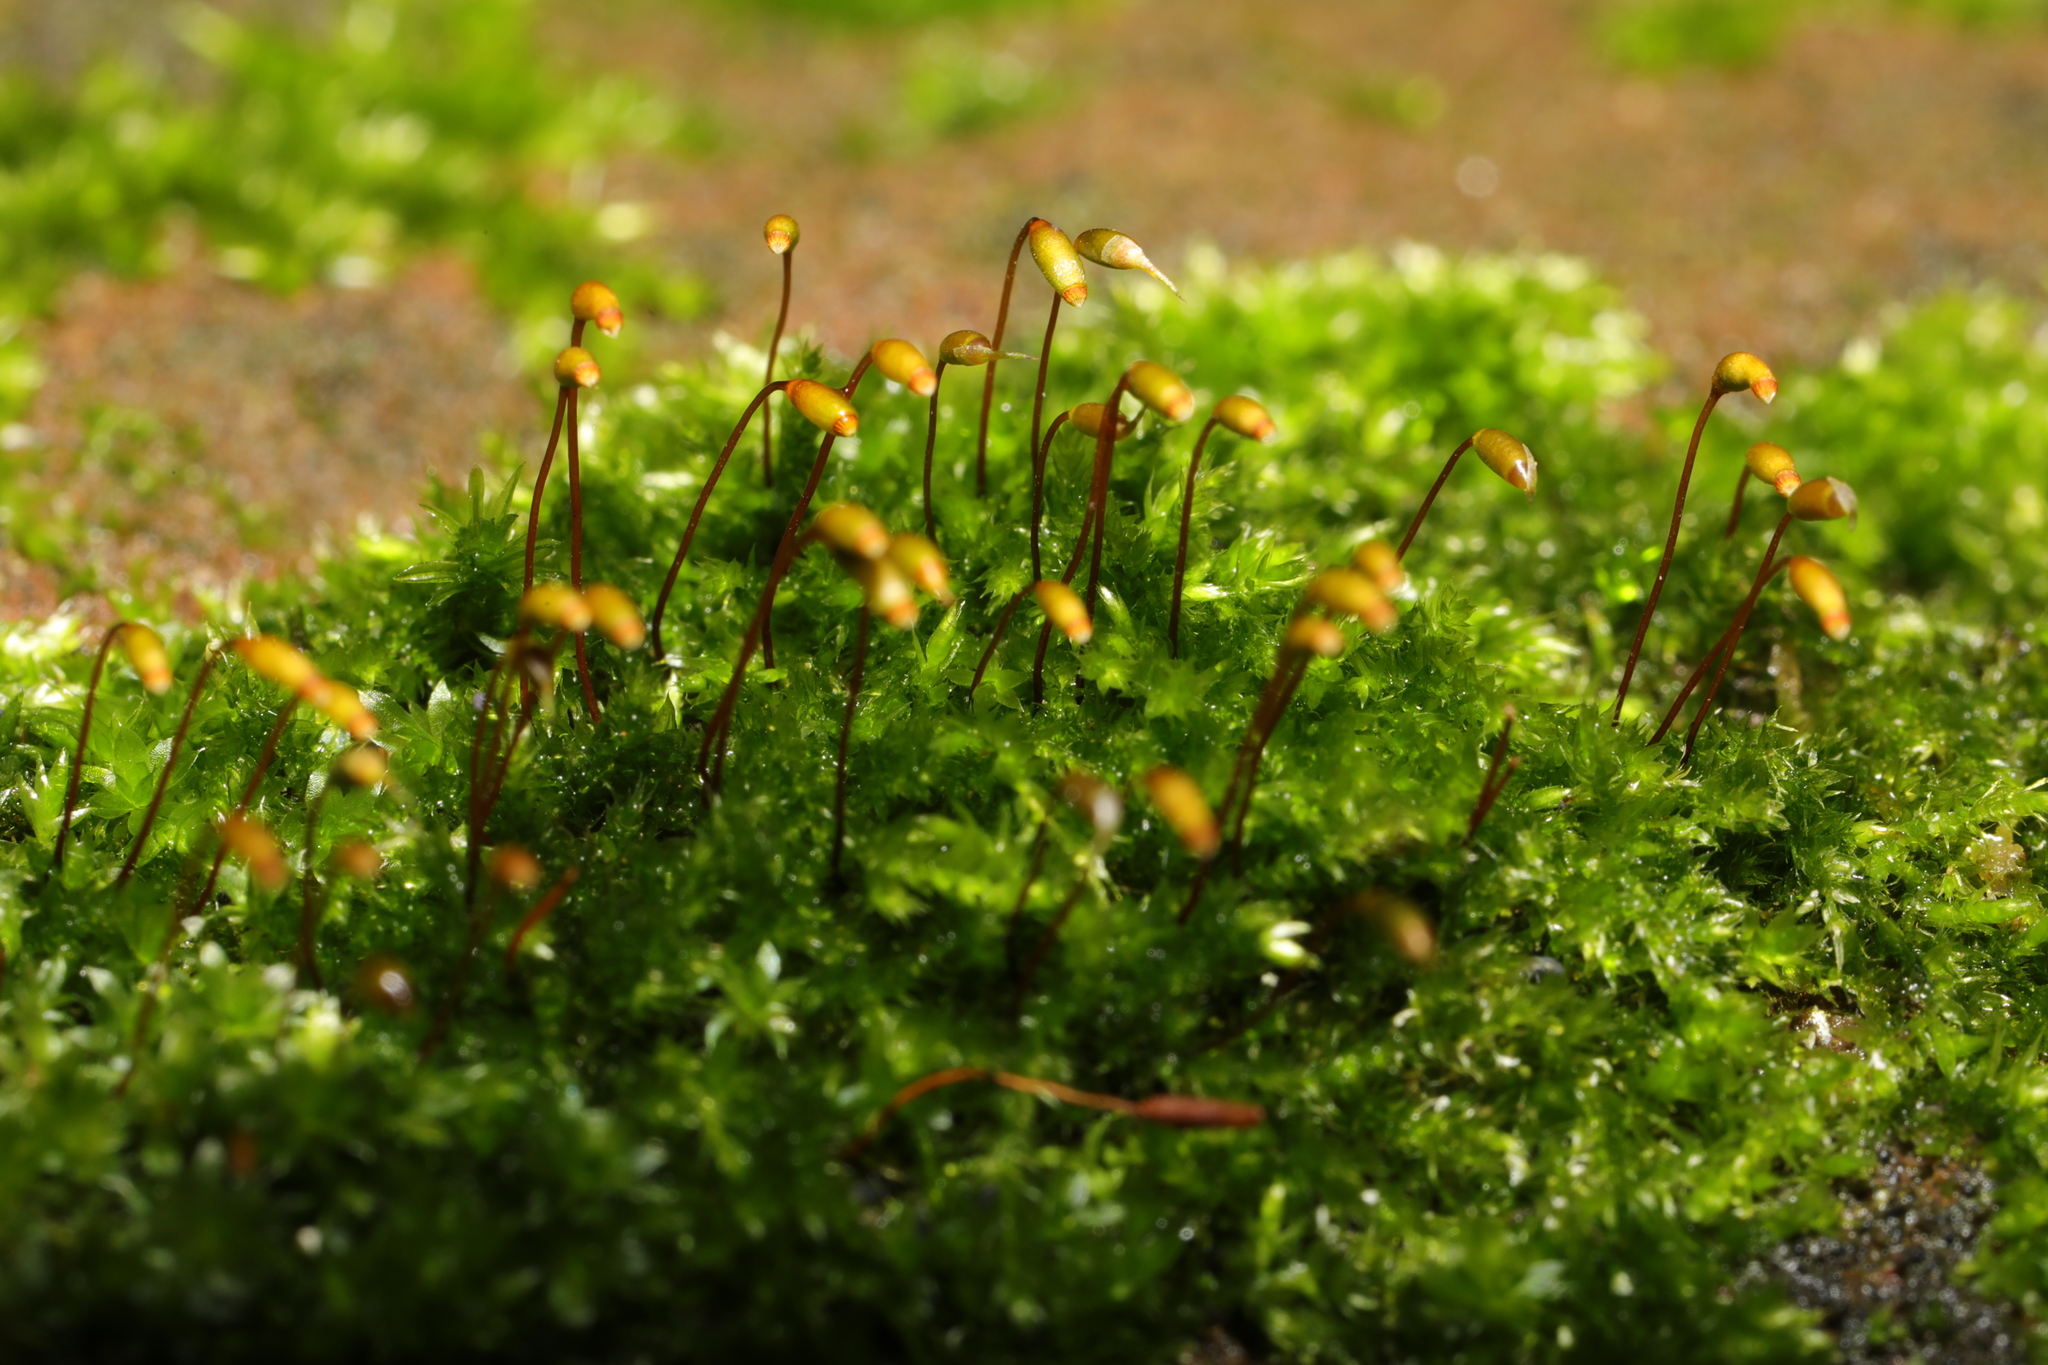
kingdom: Plantae
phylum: Bryophyta
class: Bryopsida
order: Hypnales
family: Brachytheciaceae
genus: Rhynchostegium
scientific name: Rhynchostegium confertum
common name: Clustered feather-moss
